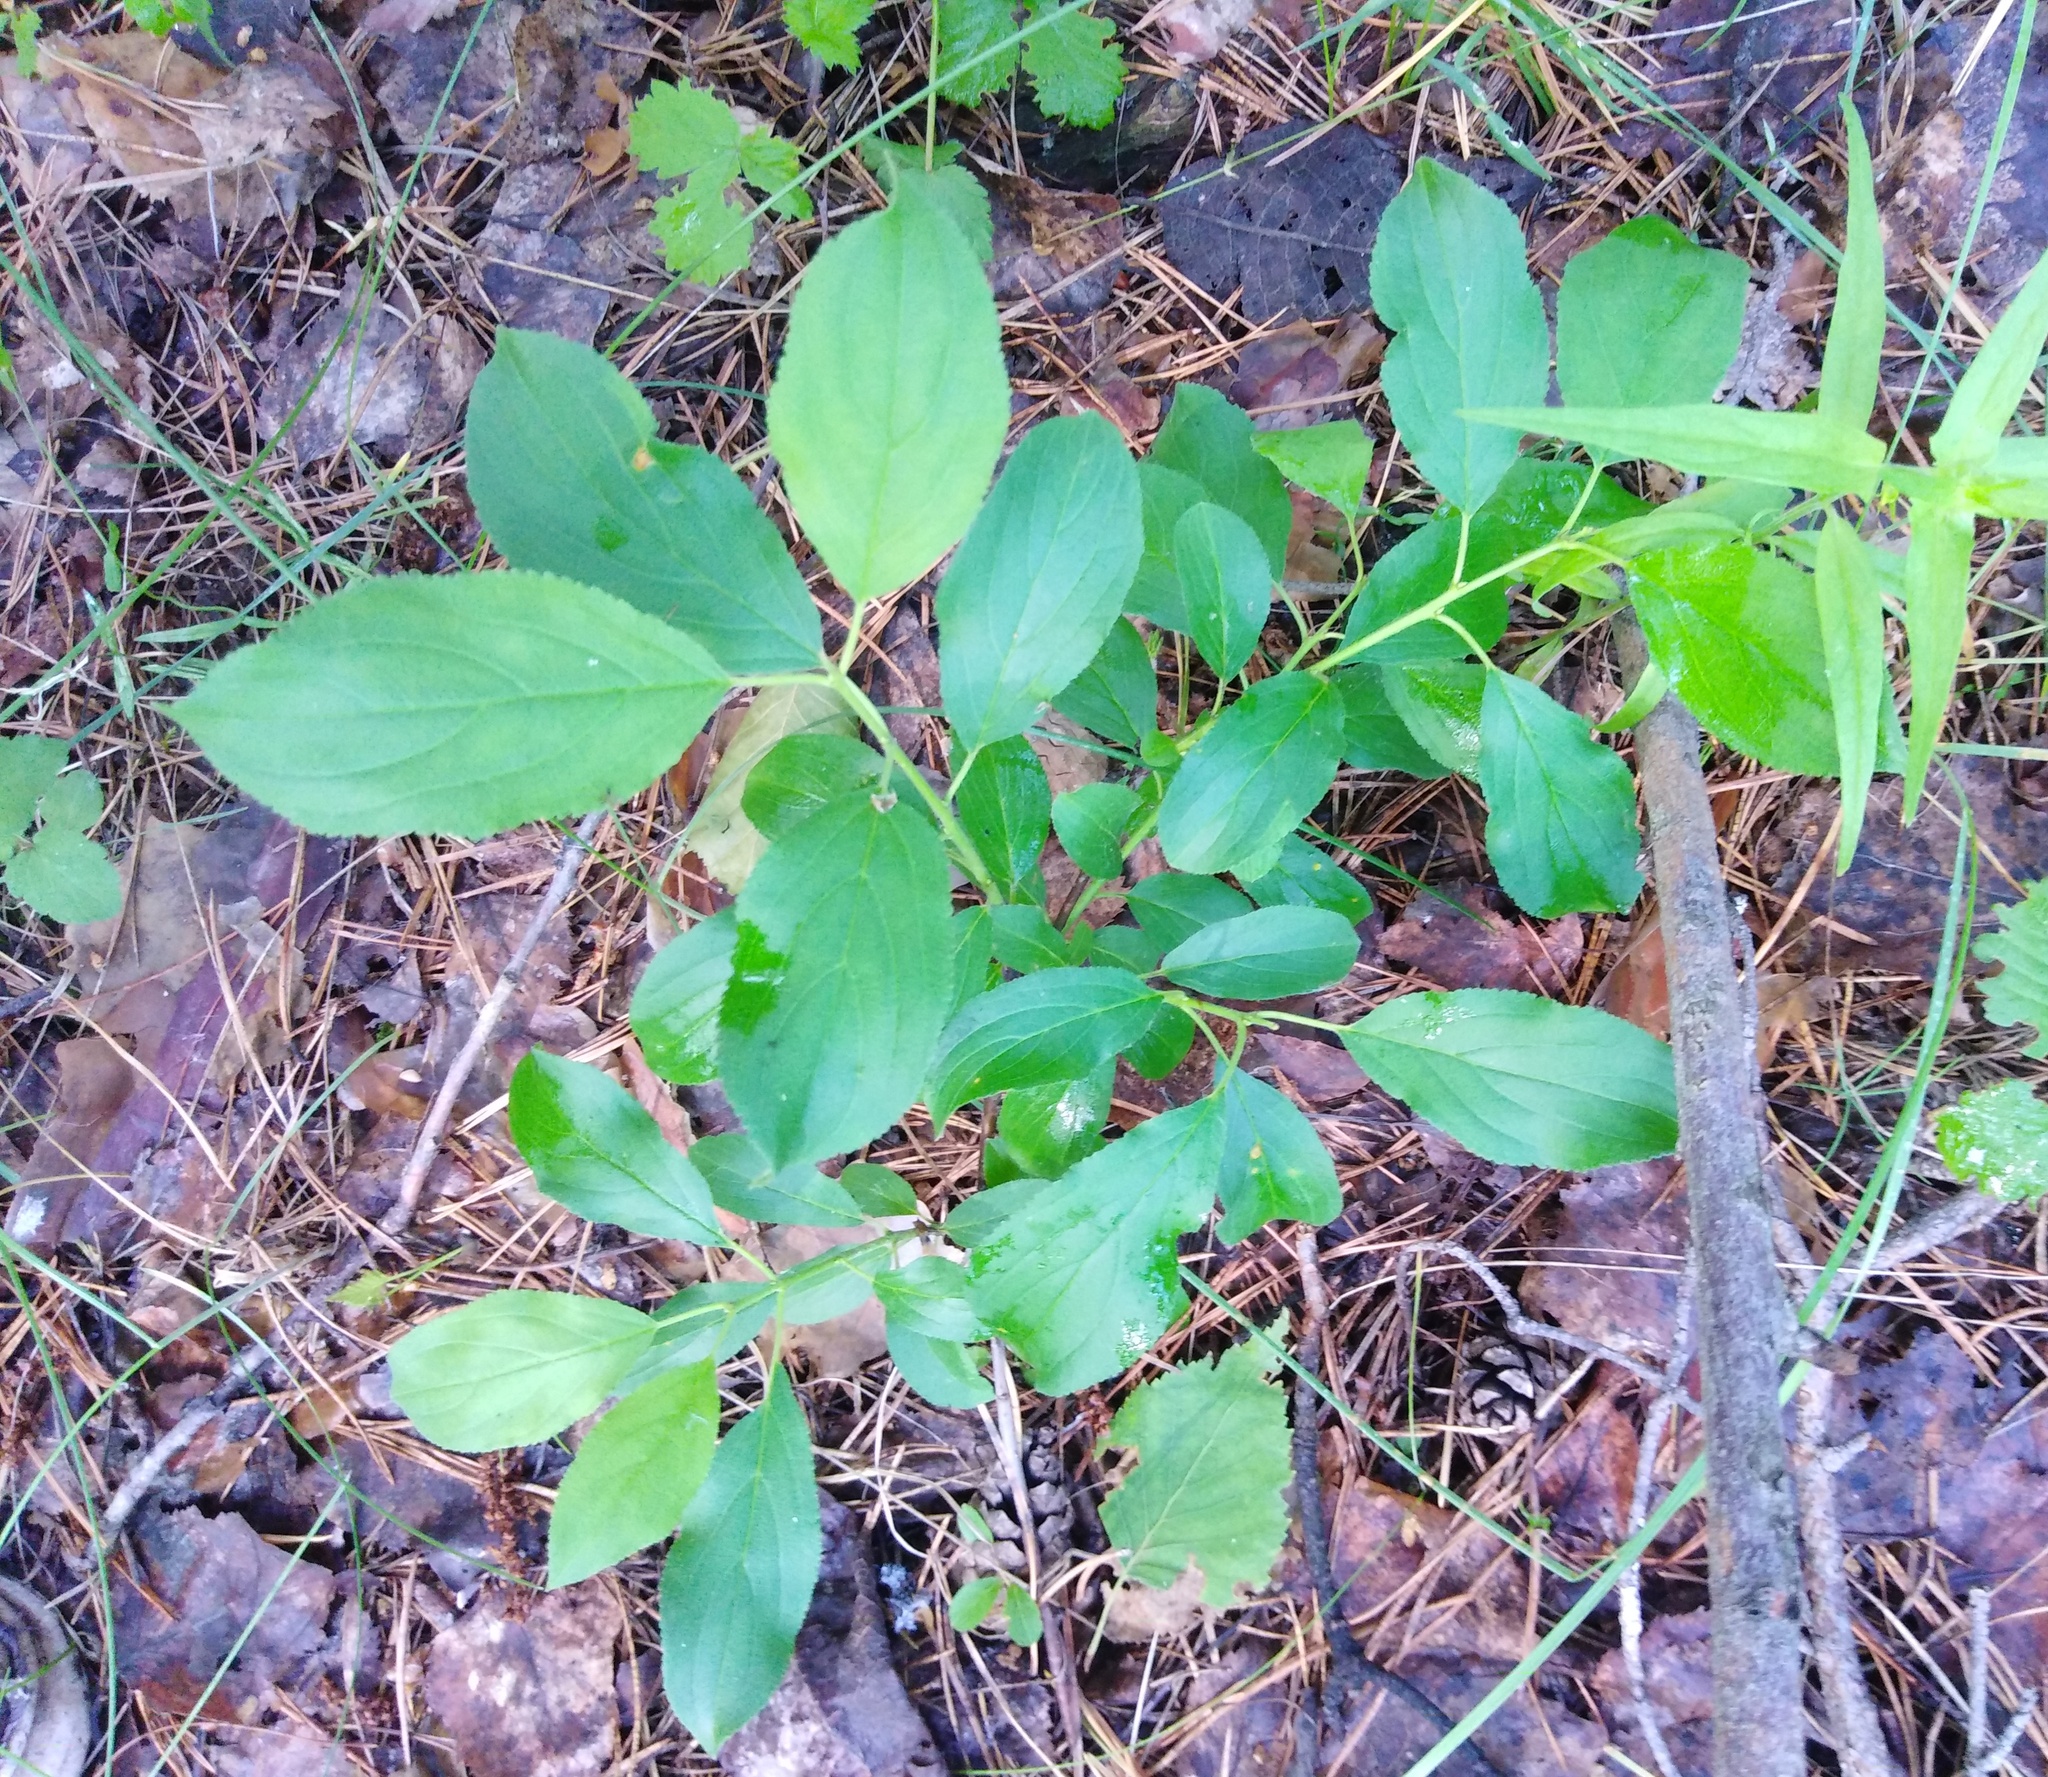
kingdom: Plantae
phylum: Tracheophyta
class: Magnoliopsida
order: Malvales
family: Malvaceae
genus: Tilia
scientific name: Tilia cordata
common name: Small-leaved lime
